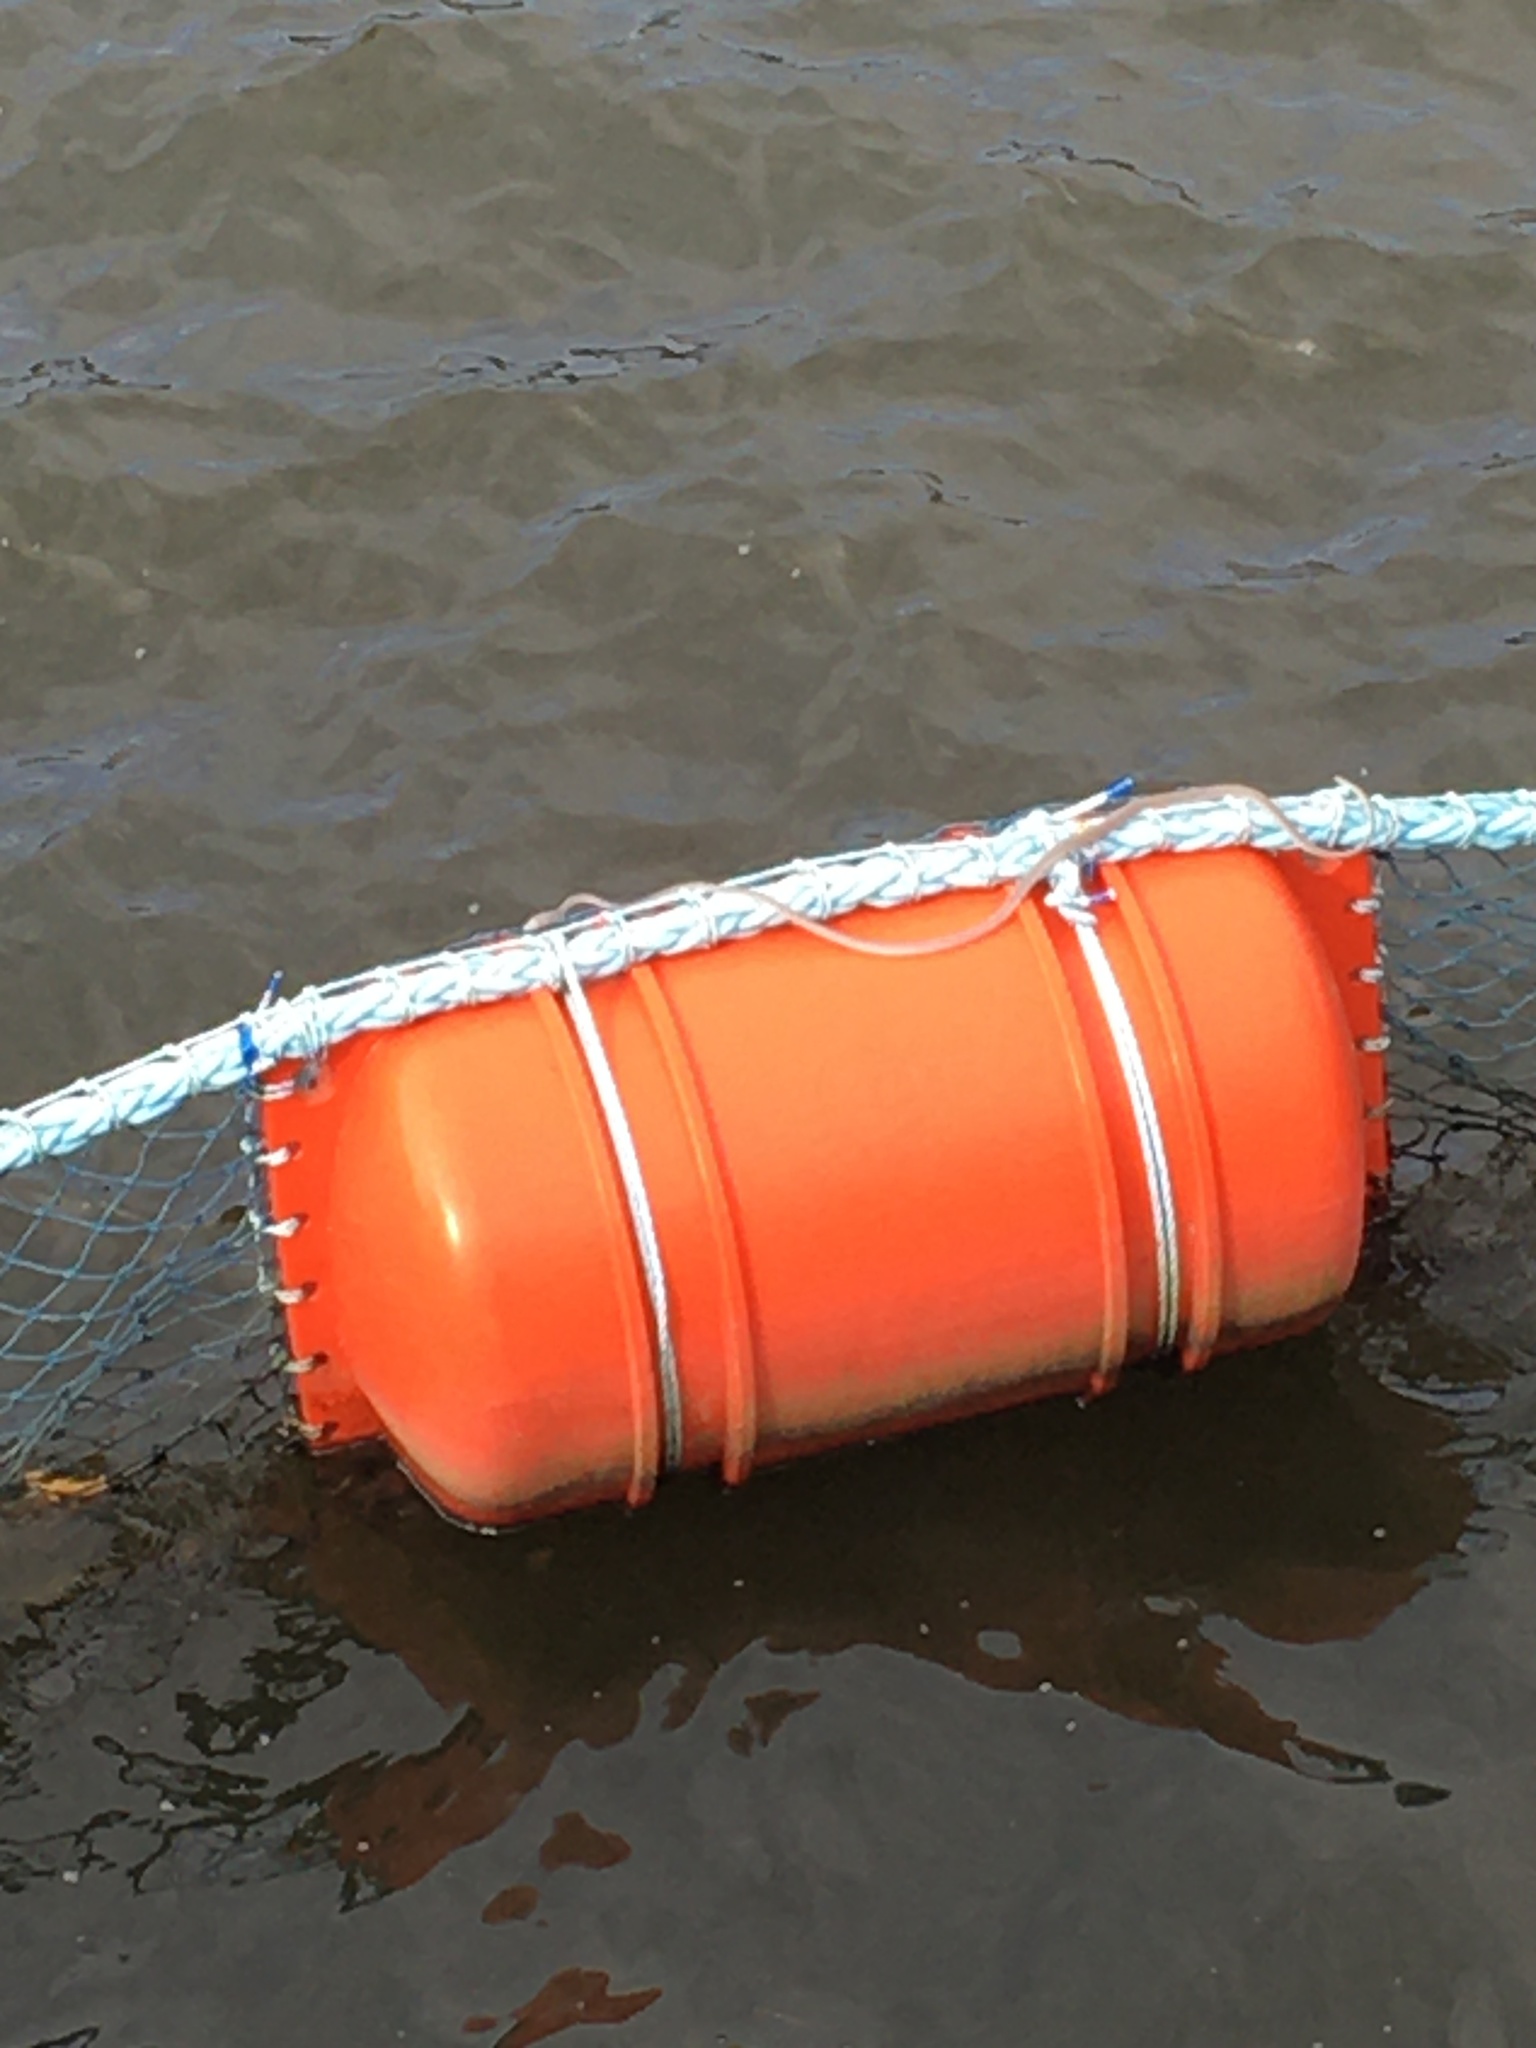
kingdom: Animalia
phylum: Chordata
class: Squamata
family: Colubridae
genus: Ahaetulla
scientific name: Ahaetulla prasina
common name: Oriental whip snake
